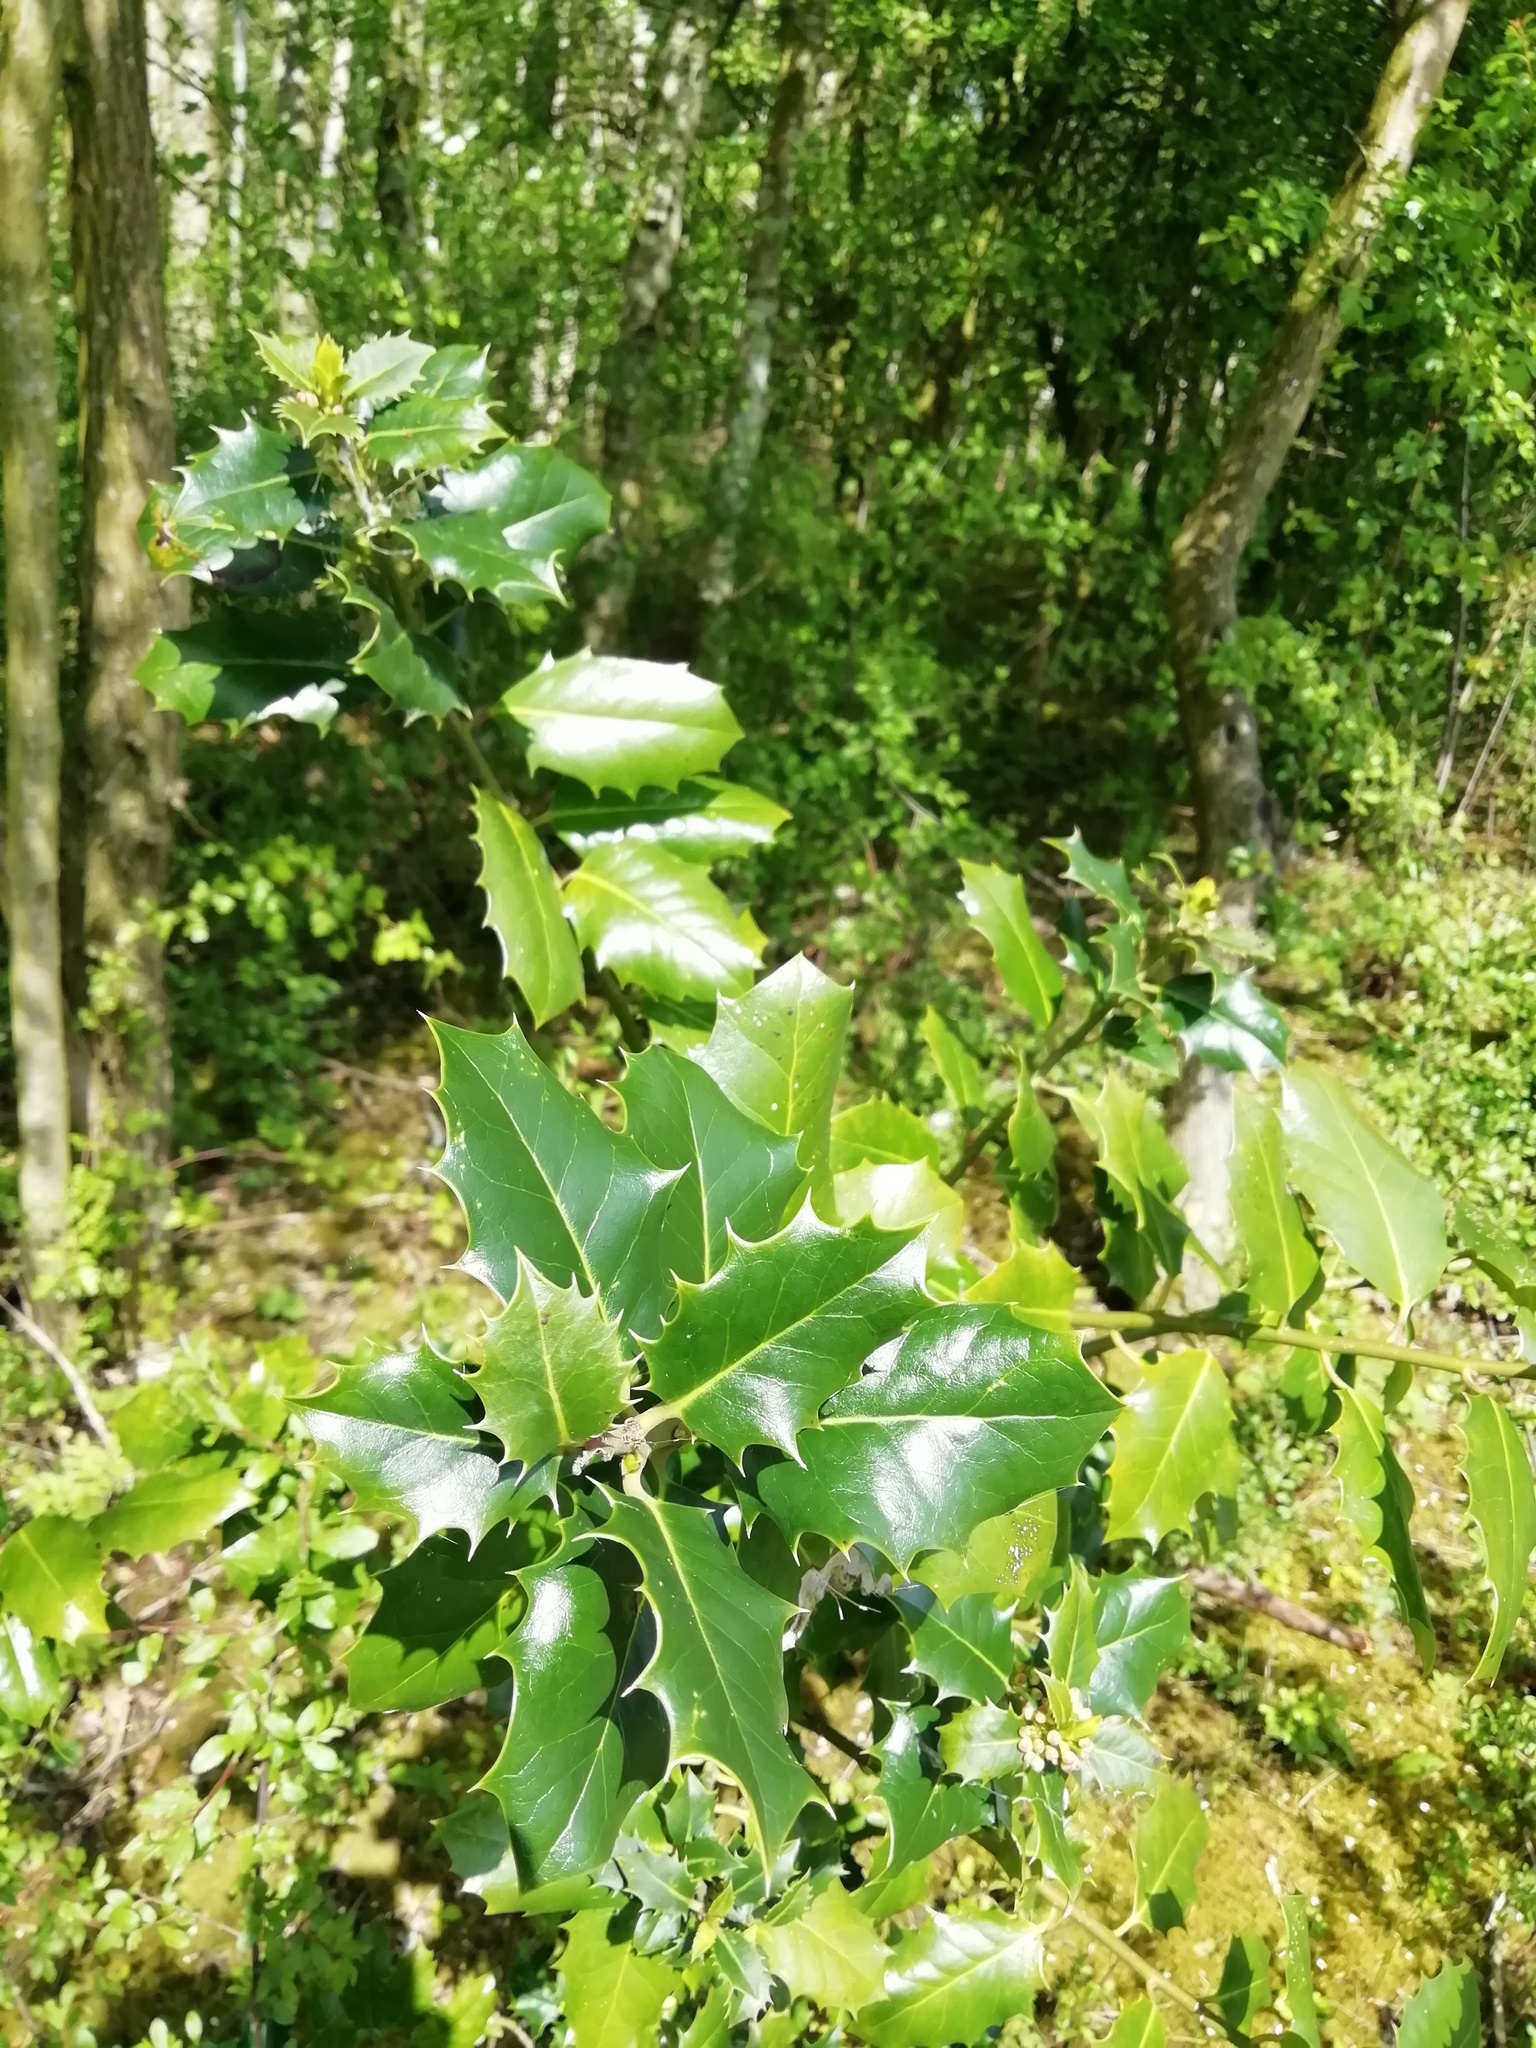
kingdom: Plantae
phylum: Tracheophyta
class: Magnoliopsida
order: Aquifoliales
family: Aquifoliaceae
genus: Ilex
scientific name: Ilex aquifolium
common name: English holly
